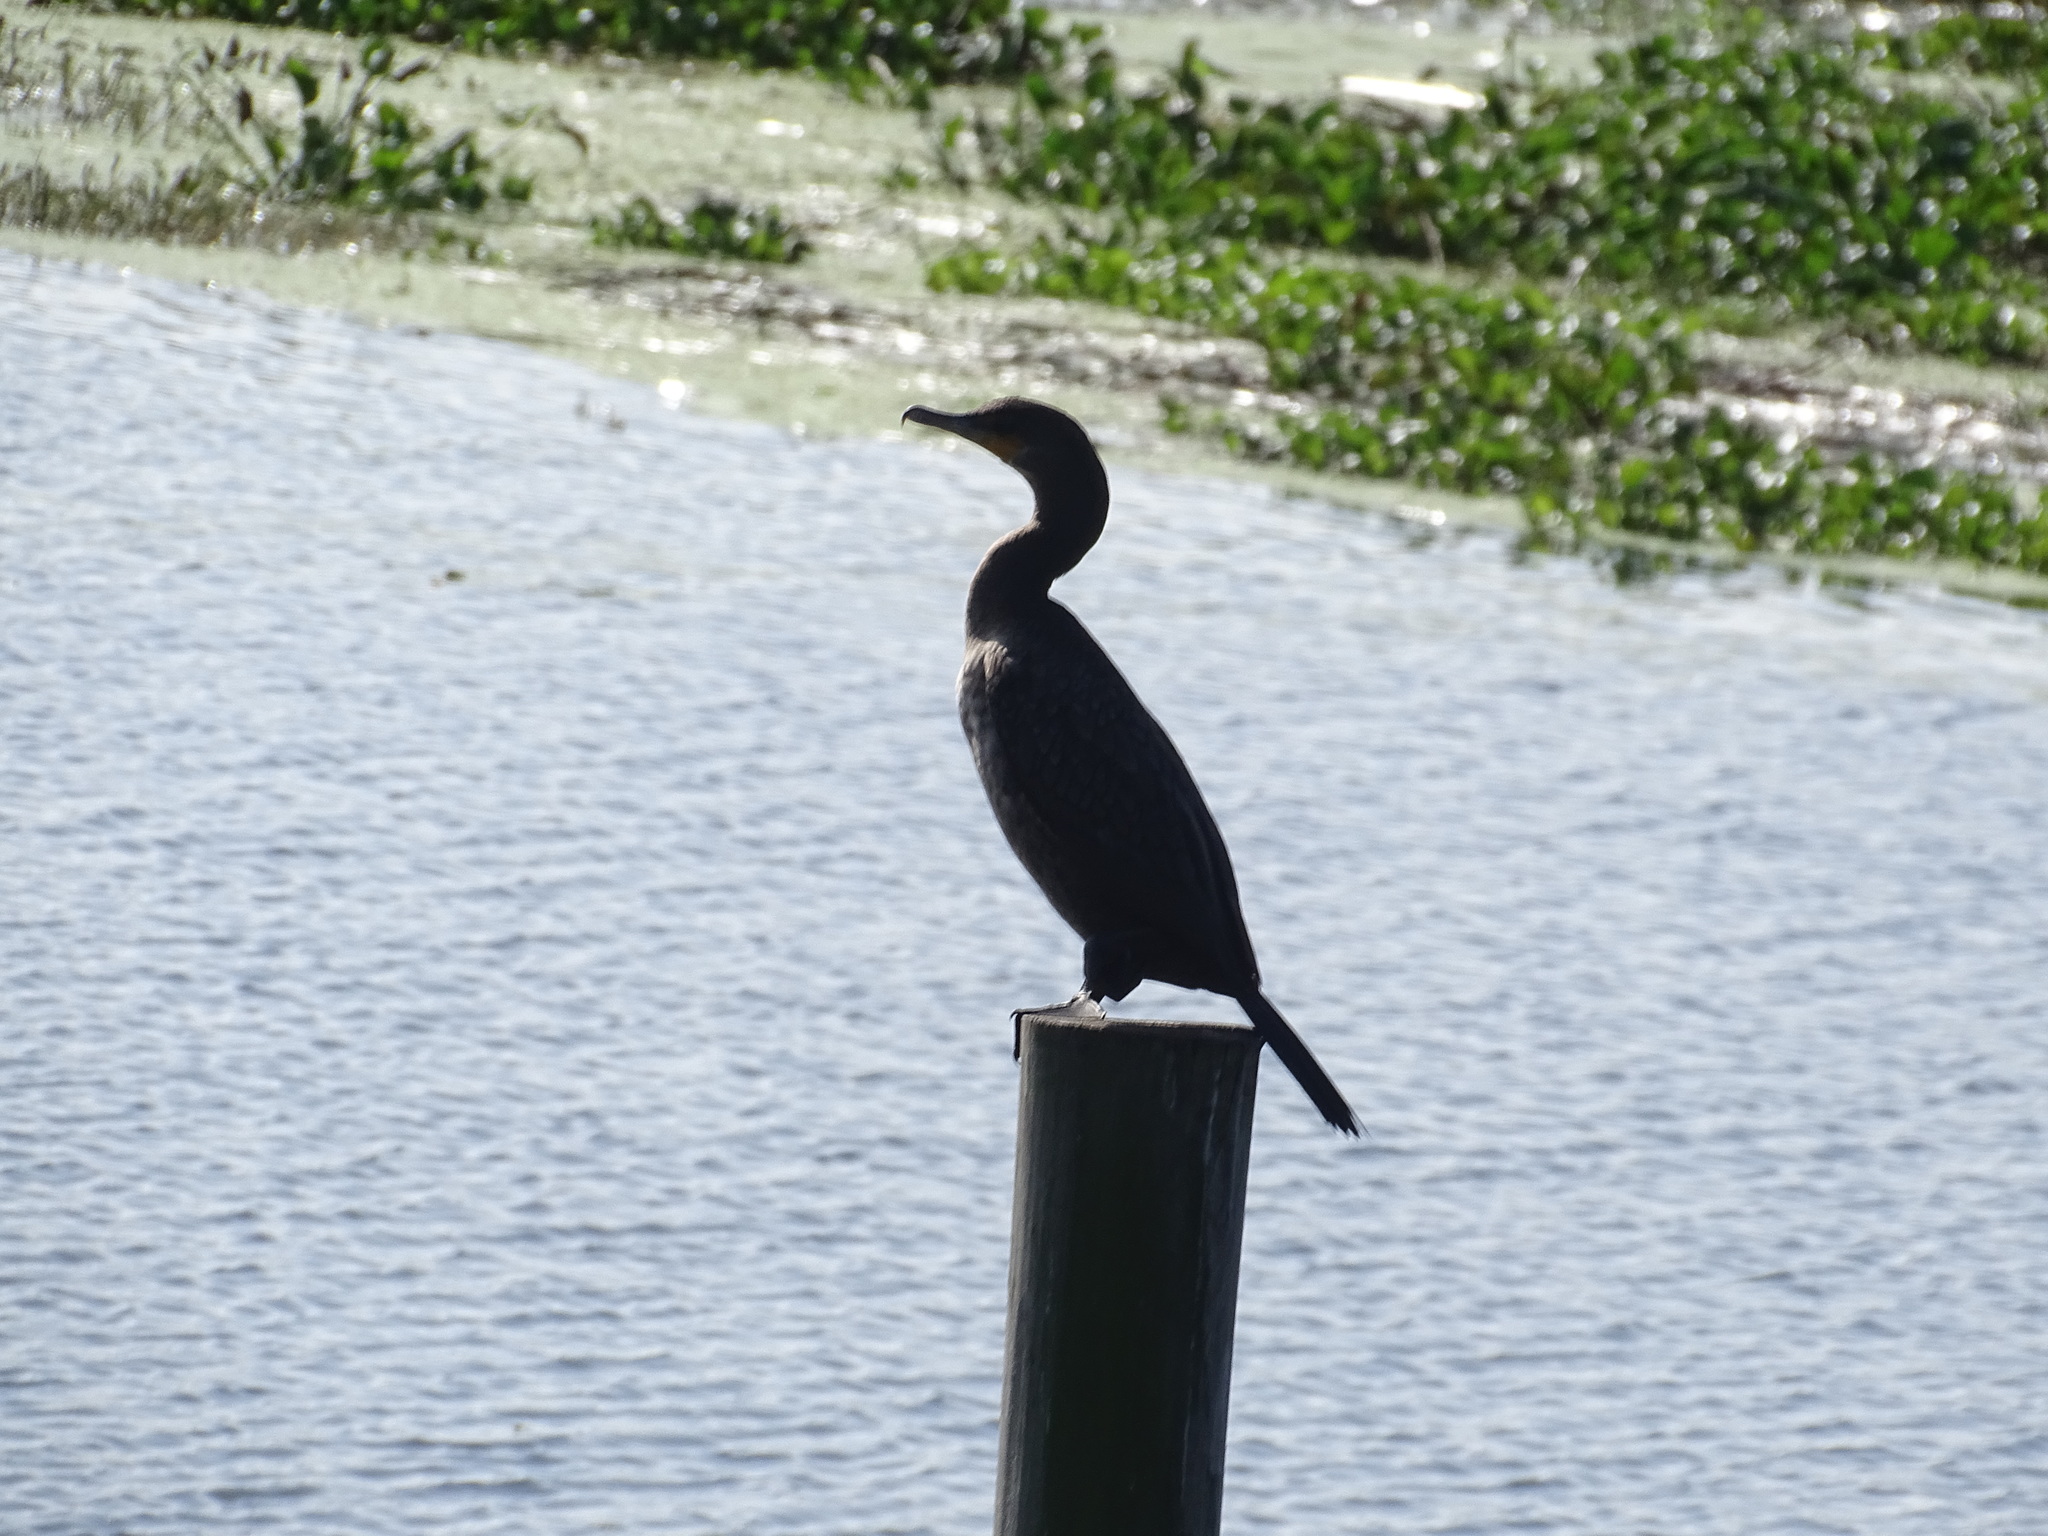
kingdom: Animalia
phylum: Chordata
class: Aves
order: Suliformes
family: Phalacrocoracidae
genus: Phalacrocorax
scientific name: Phalacrocorax auritus
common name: Double-crested cormorant
